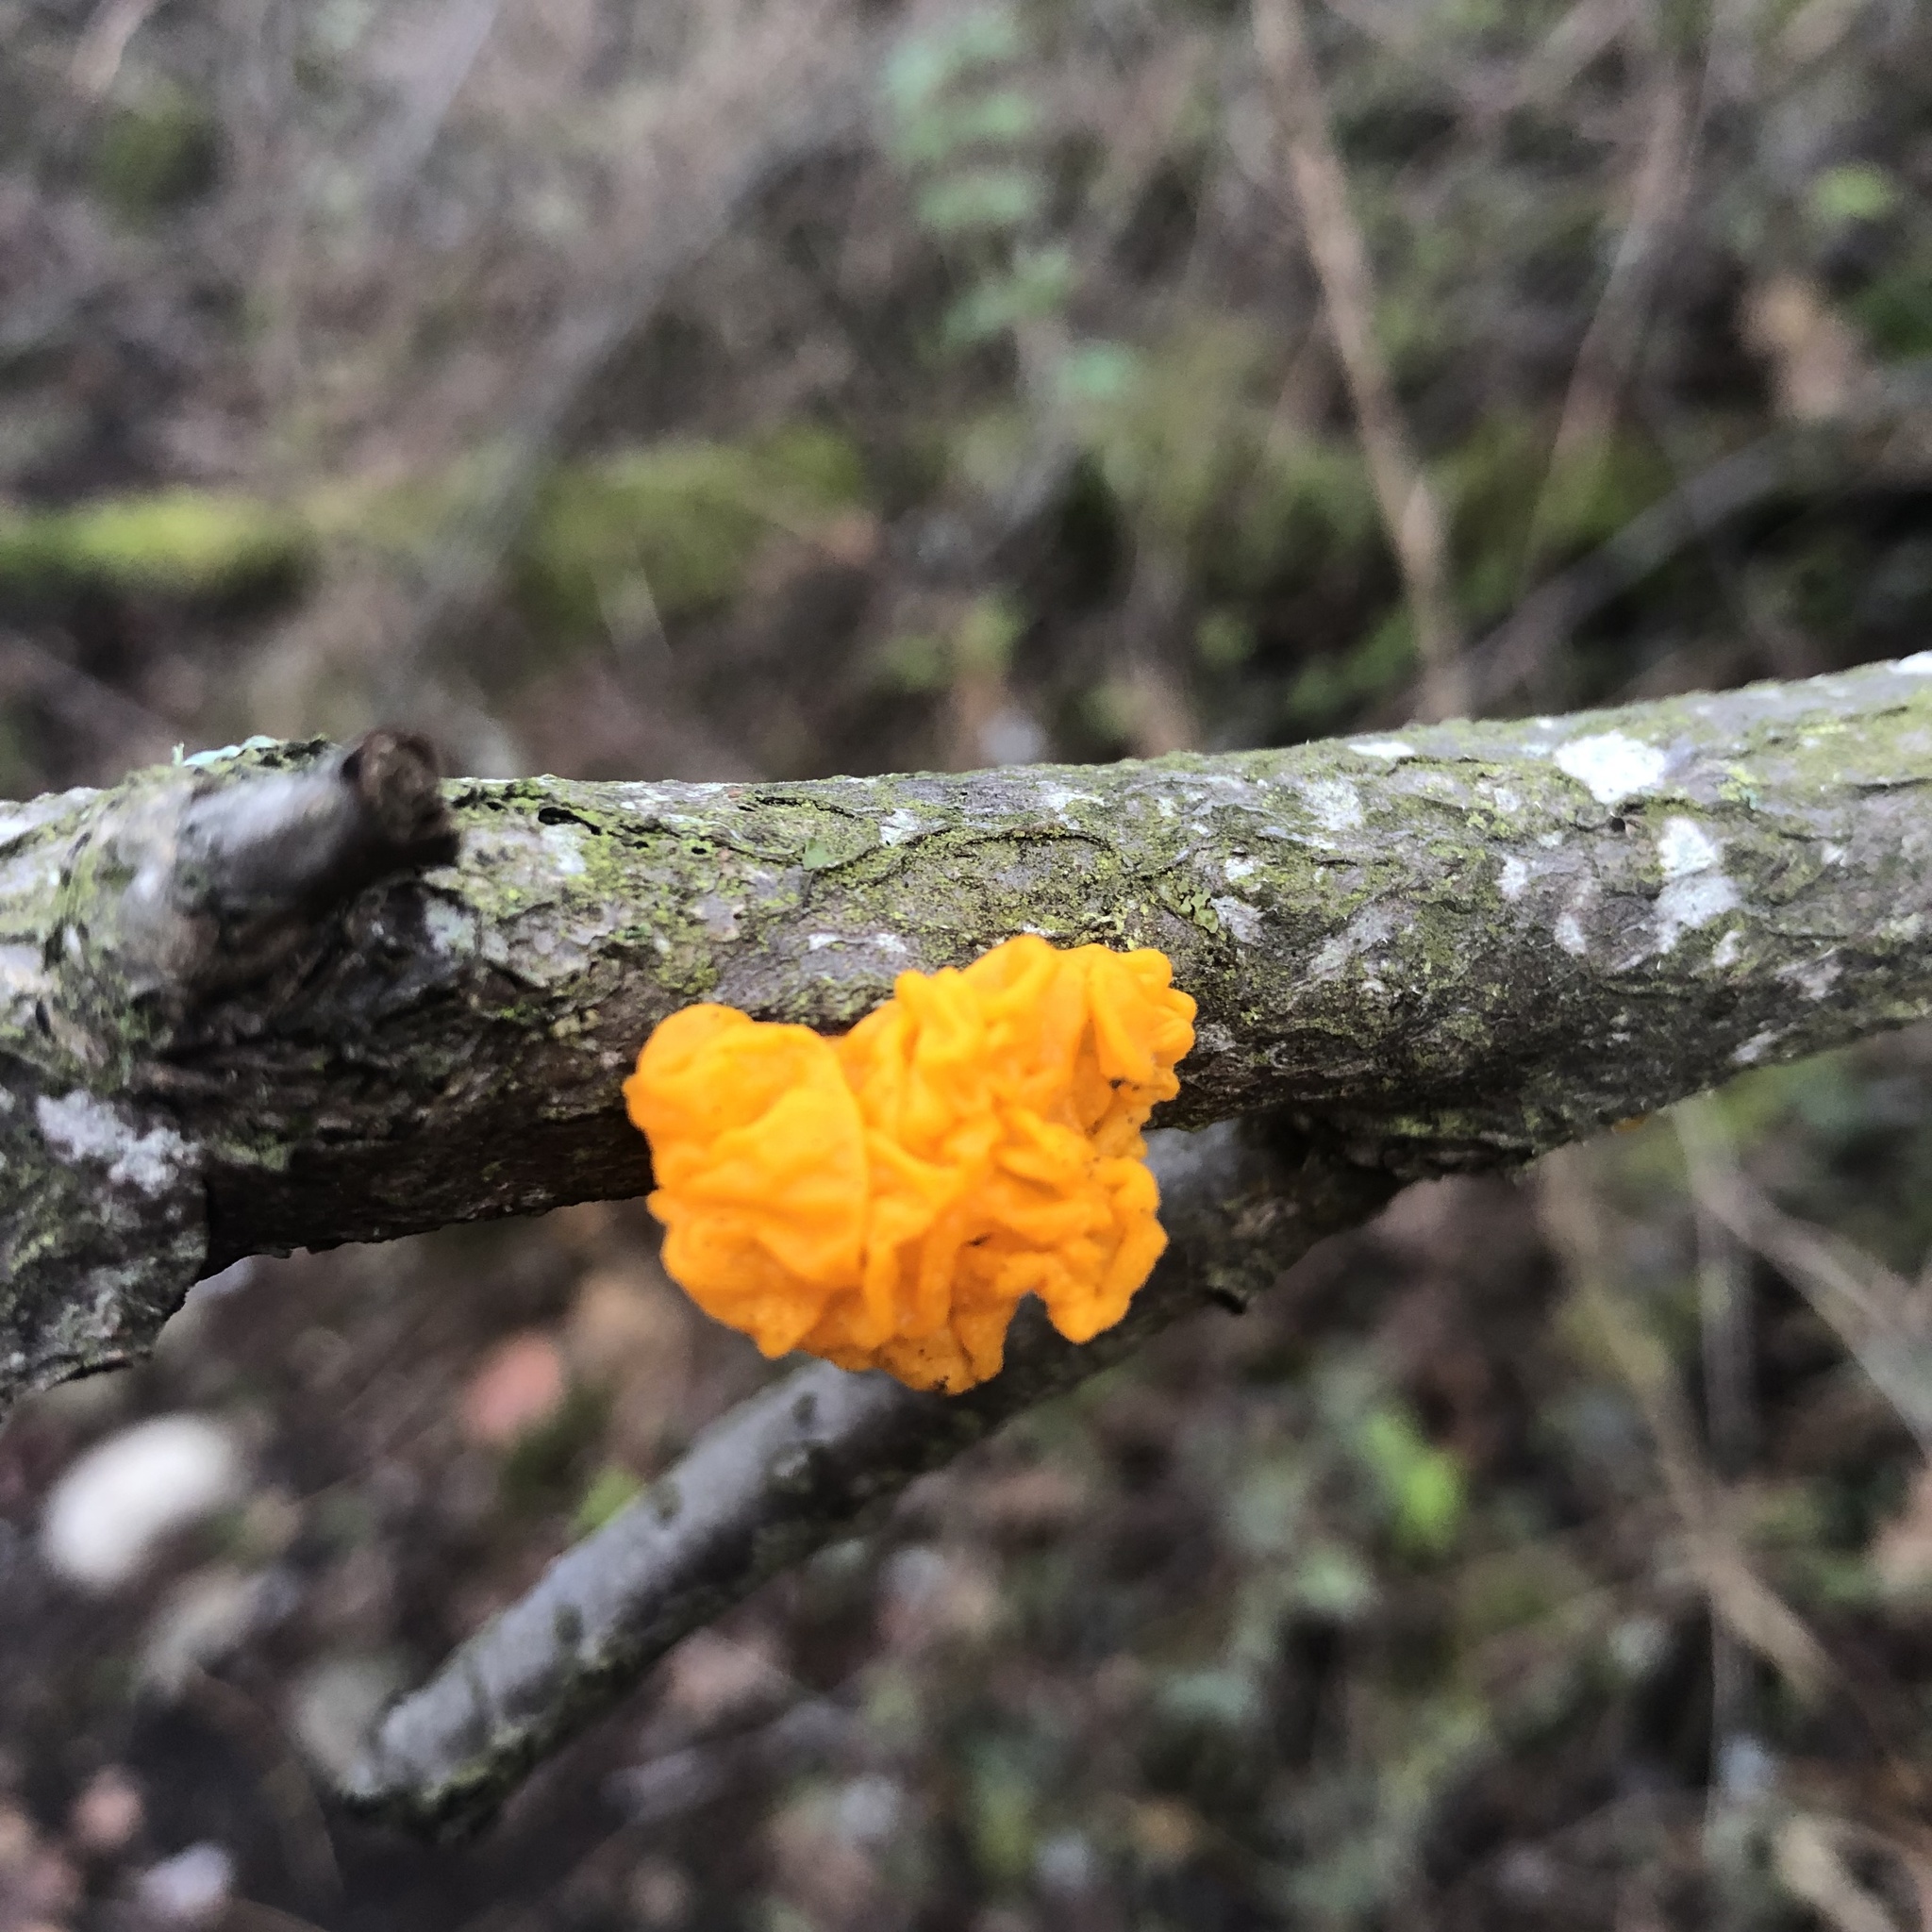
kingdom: Fungi
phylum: Basidiomycota
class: Tremellomycetes
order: Tremellales
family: Tremellaceae
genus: Tremella
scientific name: Tremella mesenterica
